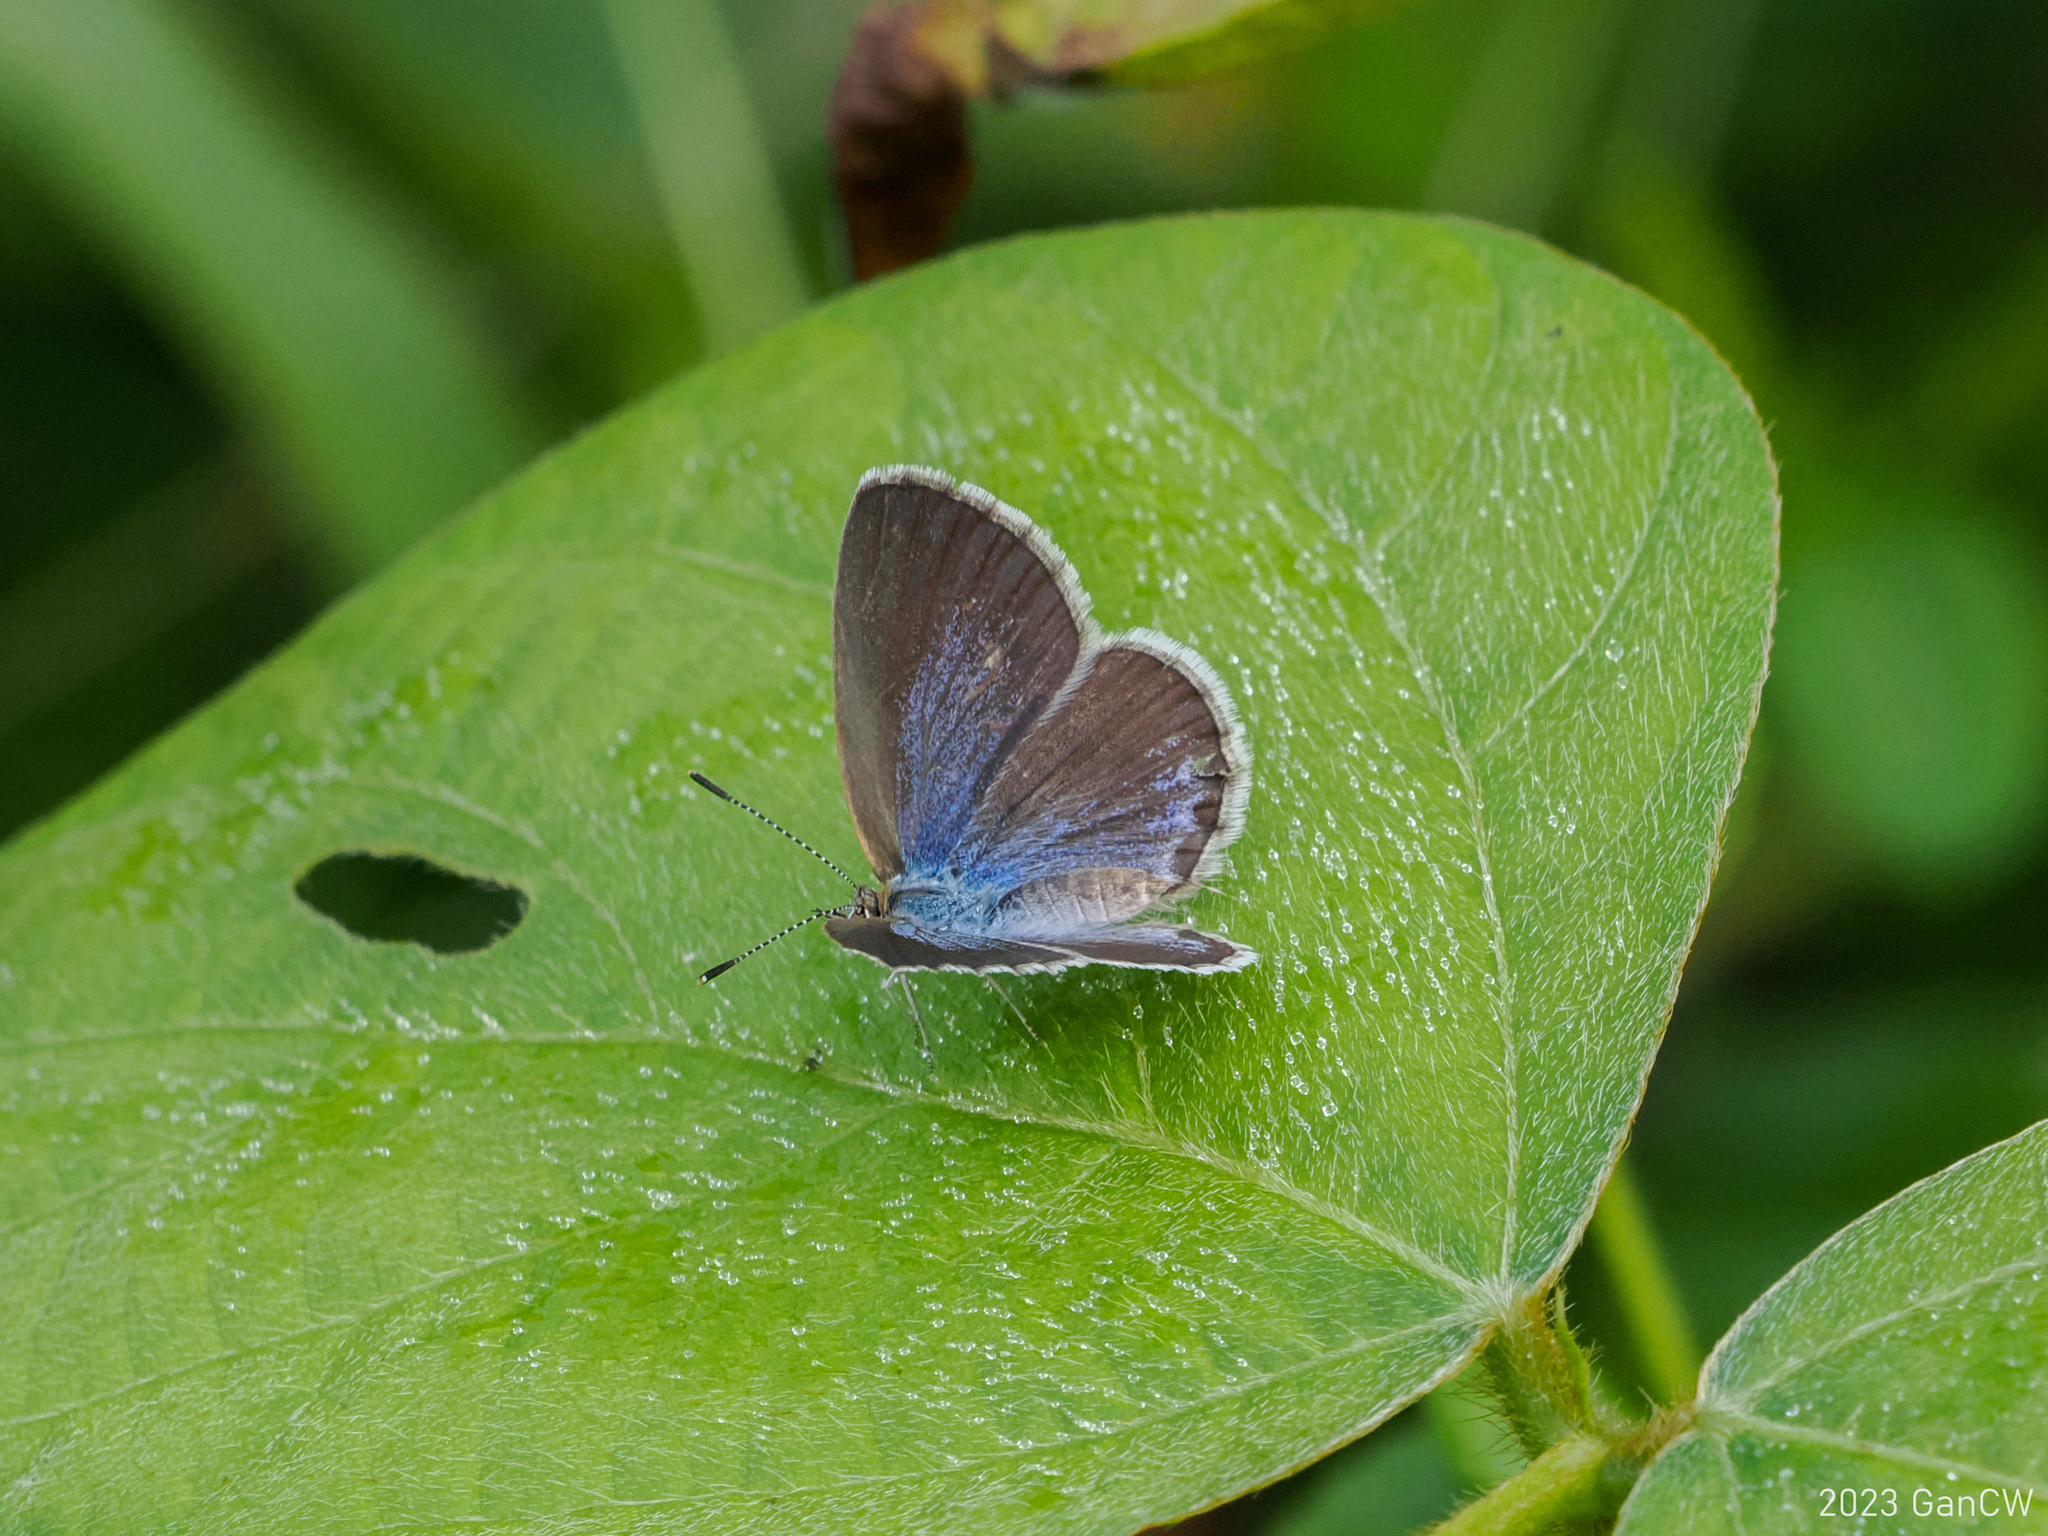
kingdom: Animalia
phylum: Arthropoda
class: Insecta
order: Lepidoptera
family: Lycaenidae
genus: Zizina
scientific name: Zizina otis
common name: Lesser grass blue
